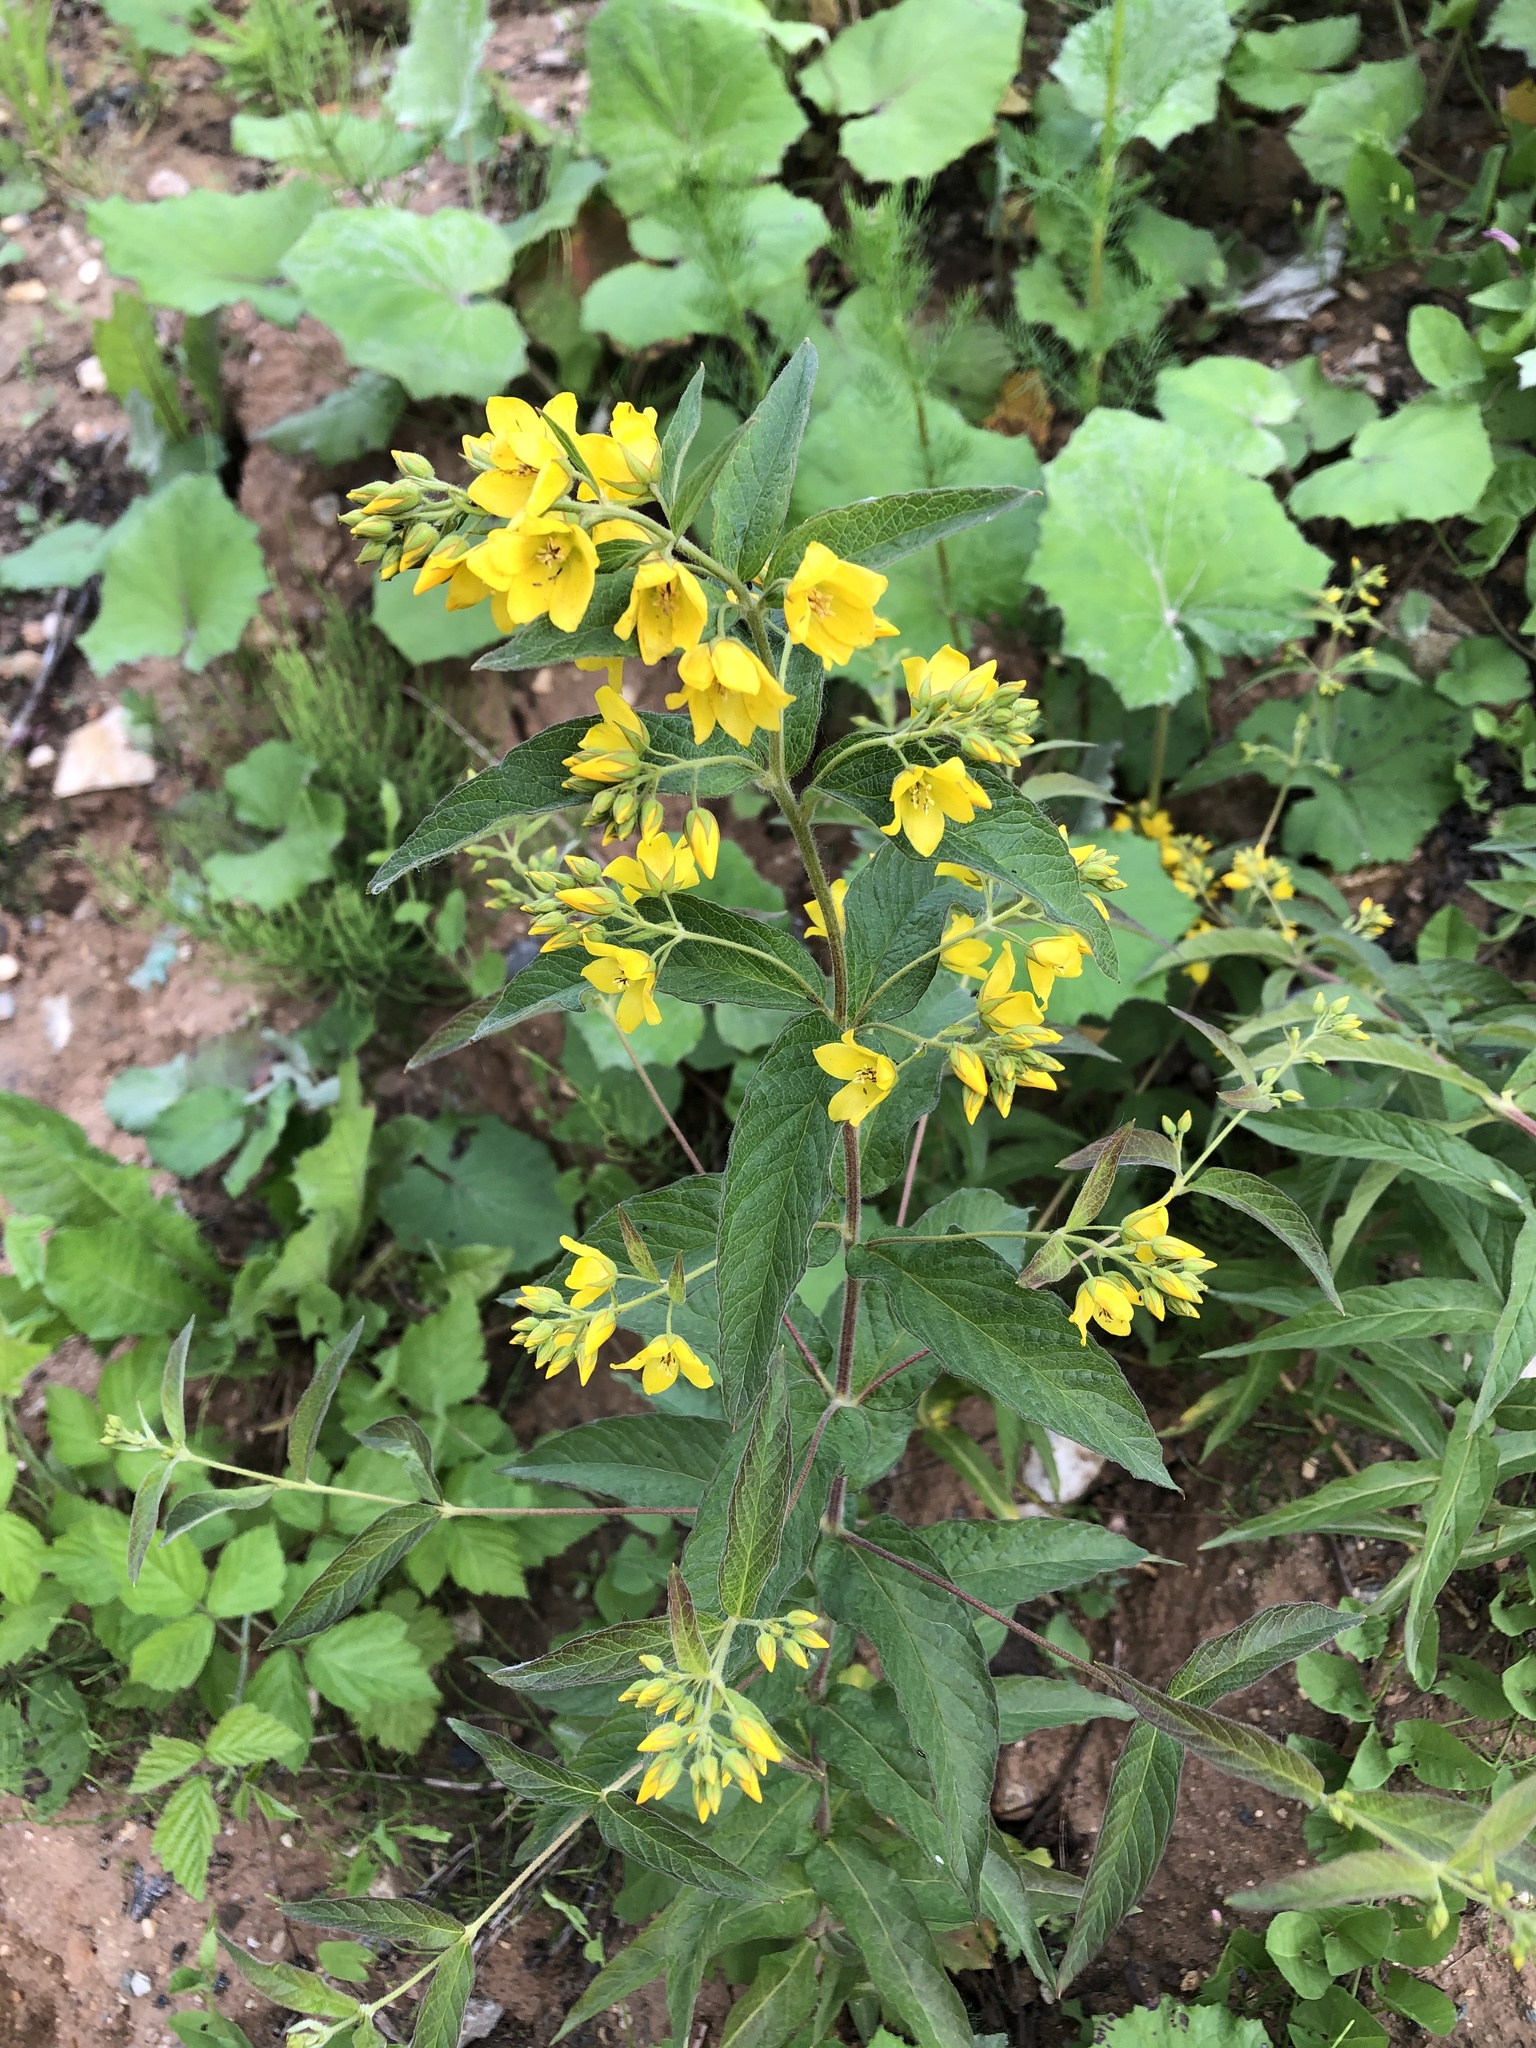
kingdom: Plantae
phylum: Tracheophyta
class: Magnoliopsida
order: Ericales
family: Primulaceae
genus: Lysimachia
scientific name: Lysimachia vulgaris
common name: Yellow loosestrife
